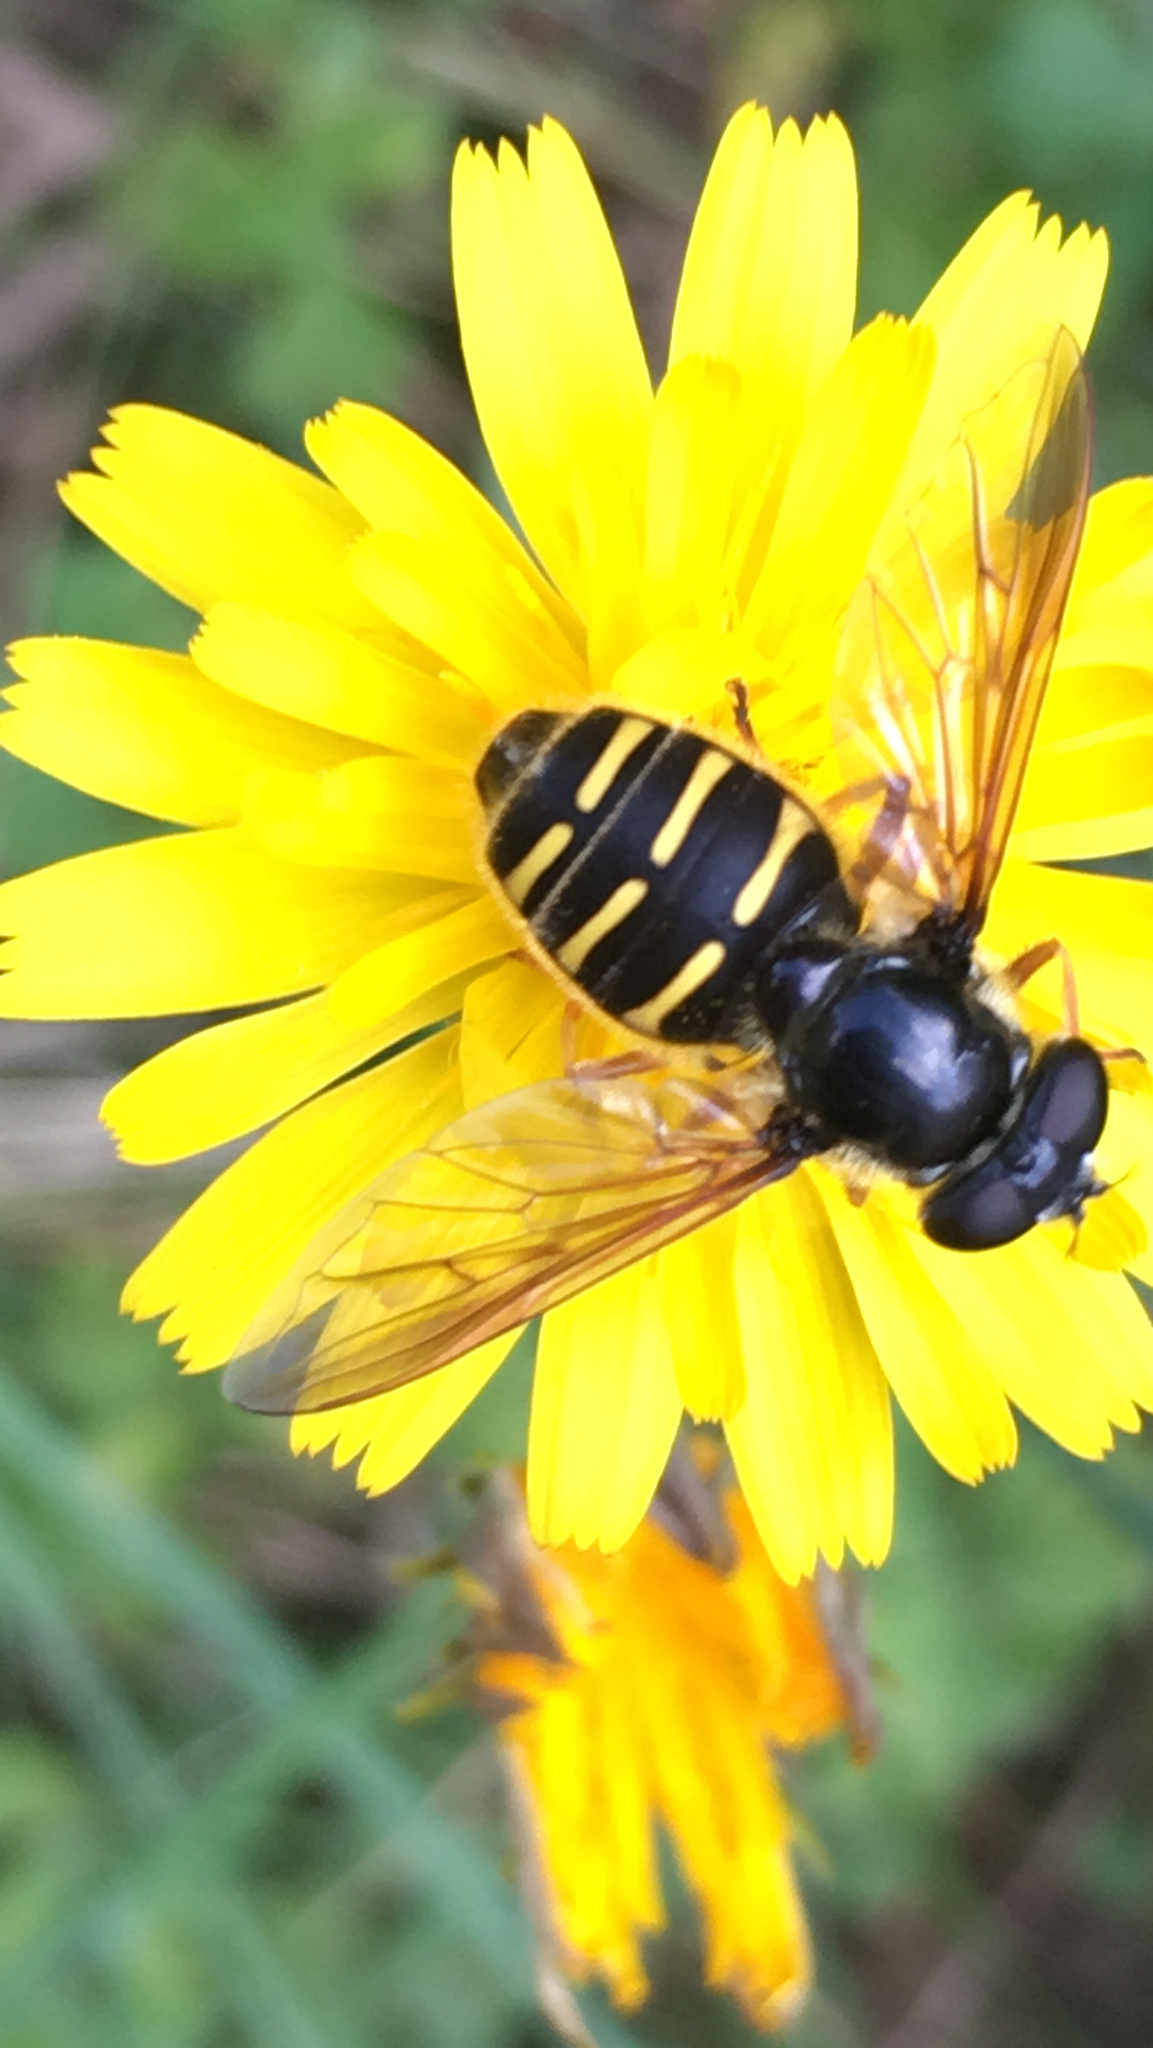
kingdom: Animalia
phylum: Arthropoda
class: Insecta
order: Diptera
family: Syrphidae
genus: Sericomyia
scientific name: Sericomyia chalcopyga
